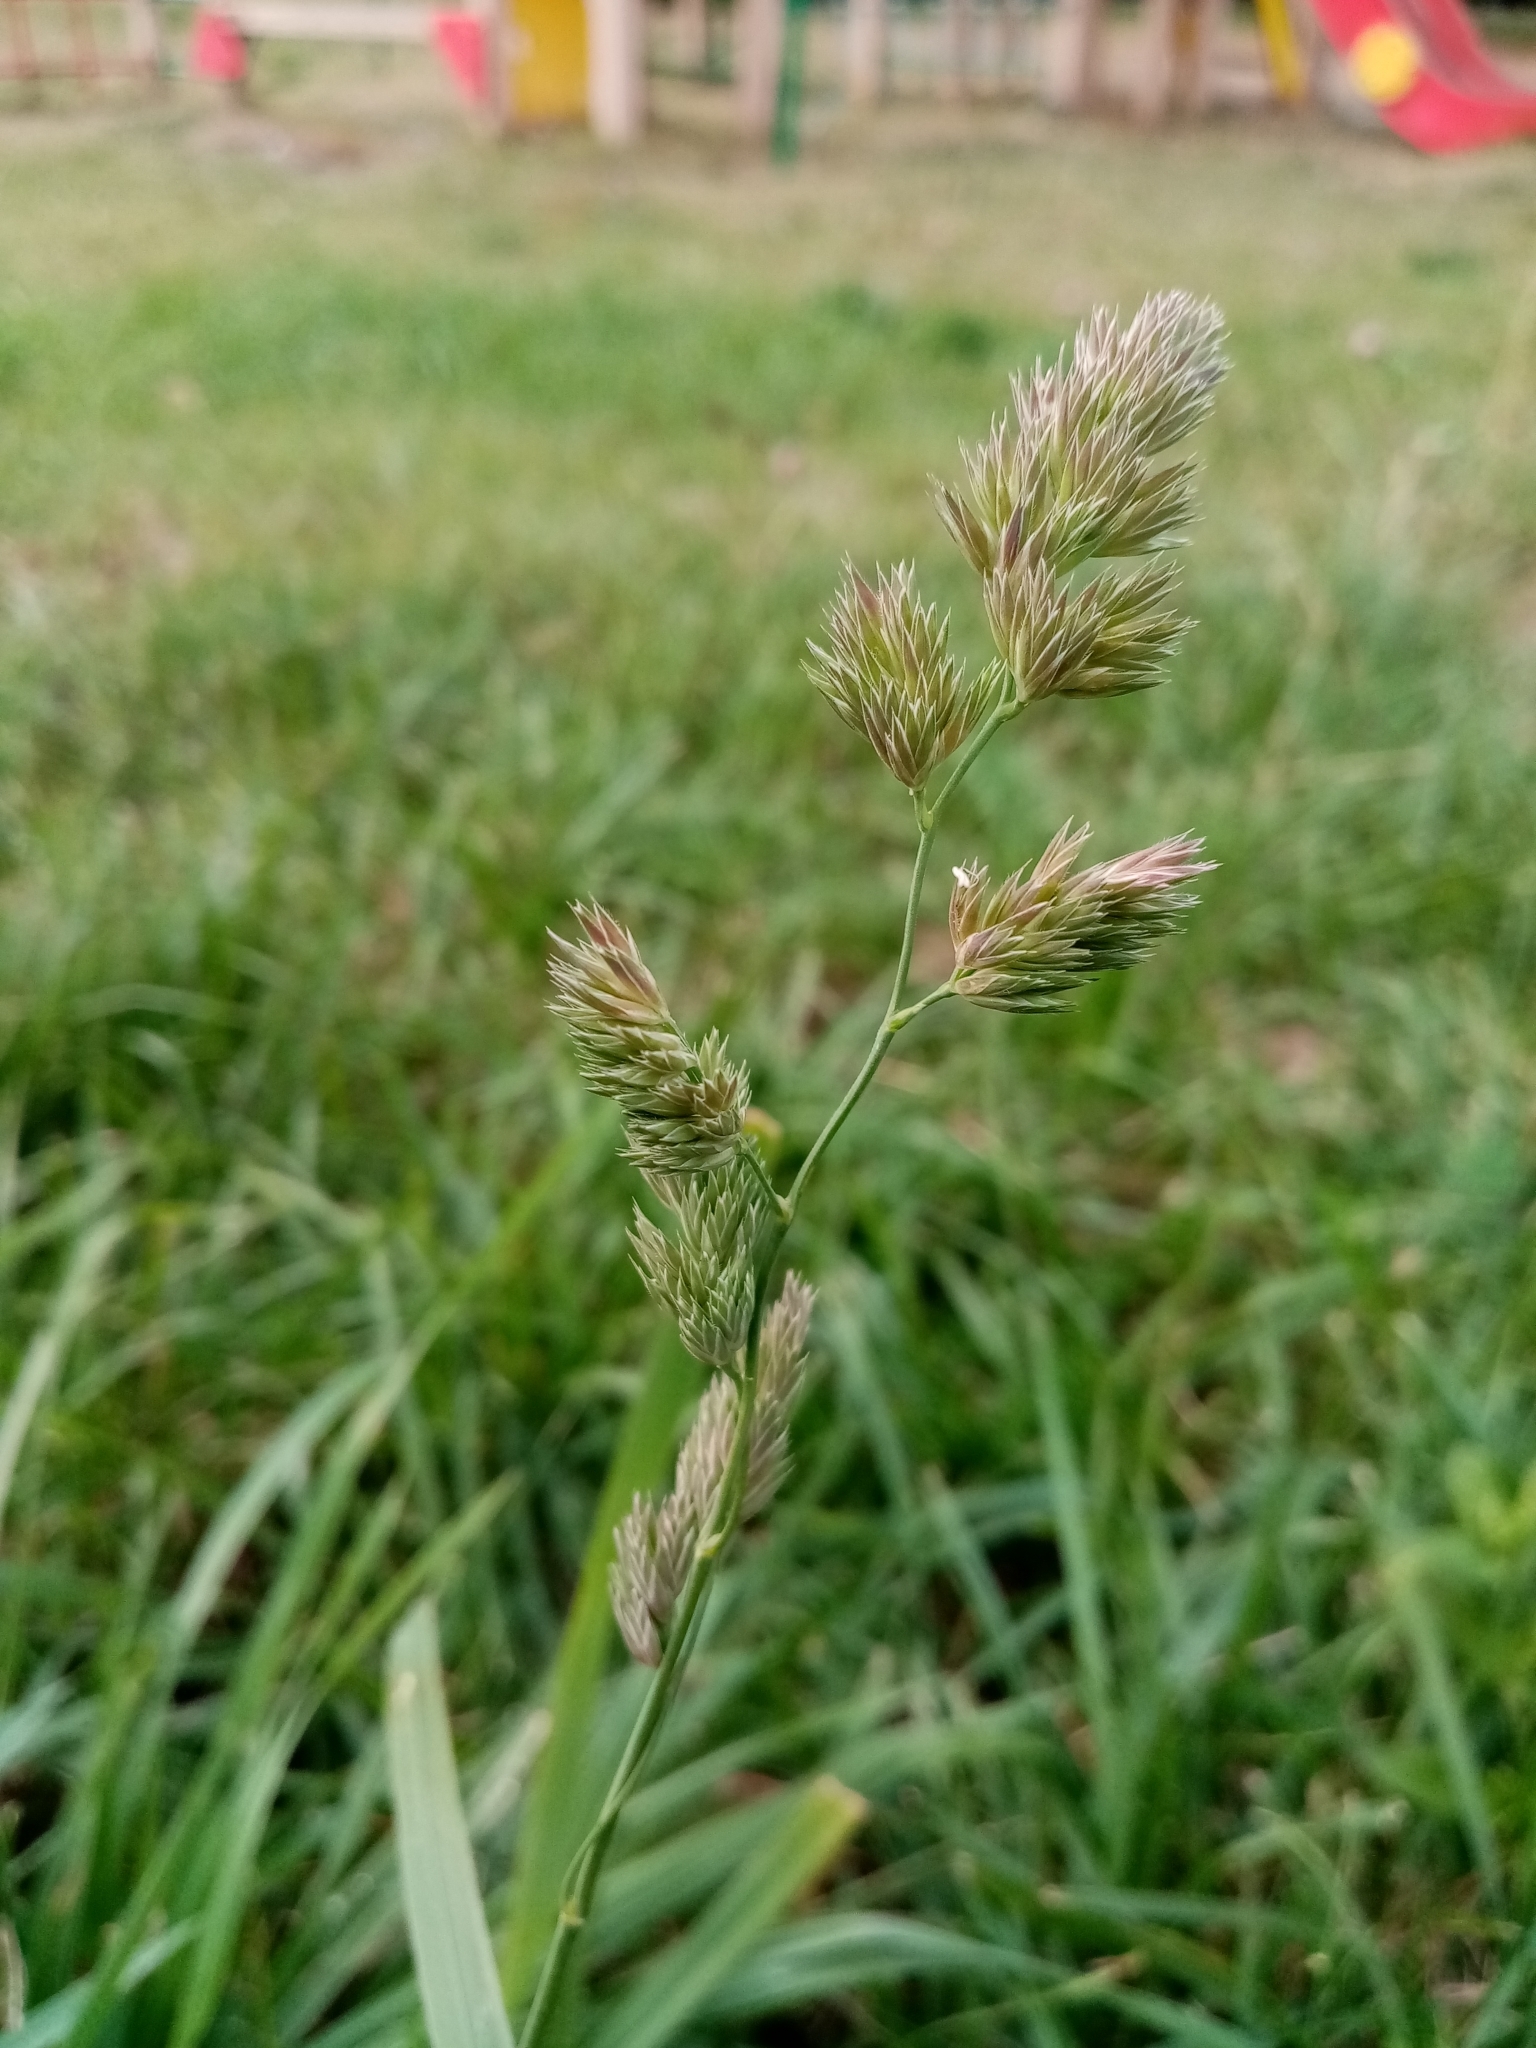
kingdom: Plantae
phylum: Tracheophyta
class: Liliopsida
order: Poales
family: Poaceae
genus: Dactylis
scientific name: Dactylis glomerata
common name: Orchardgrass
